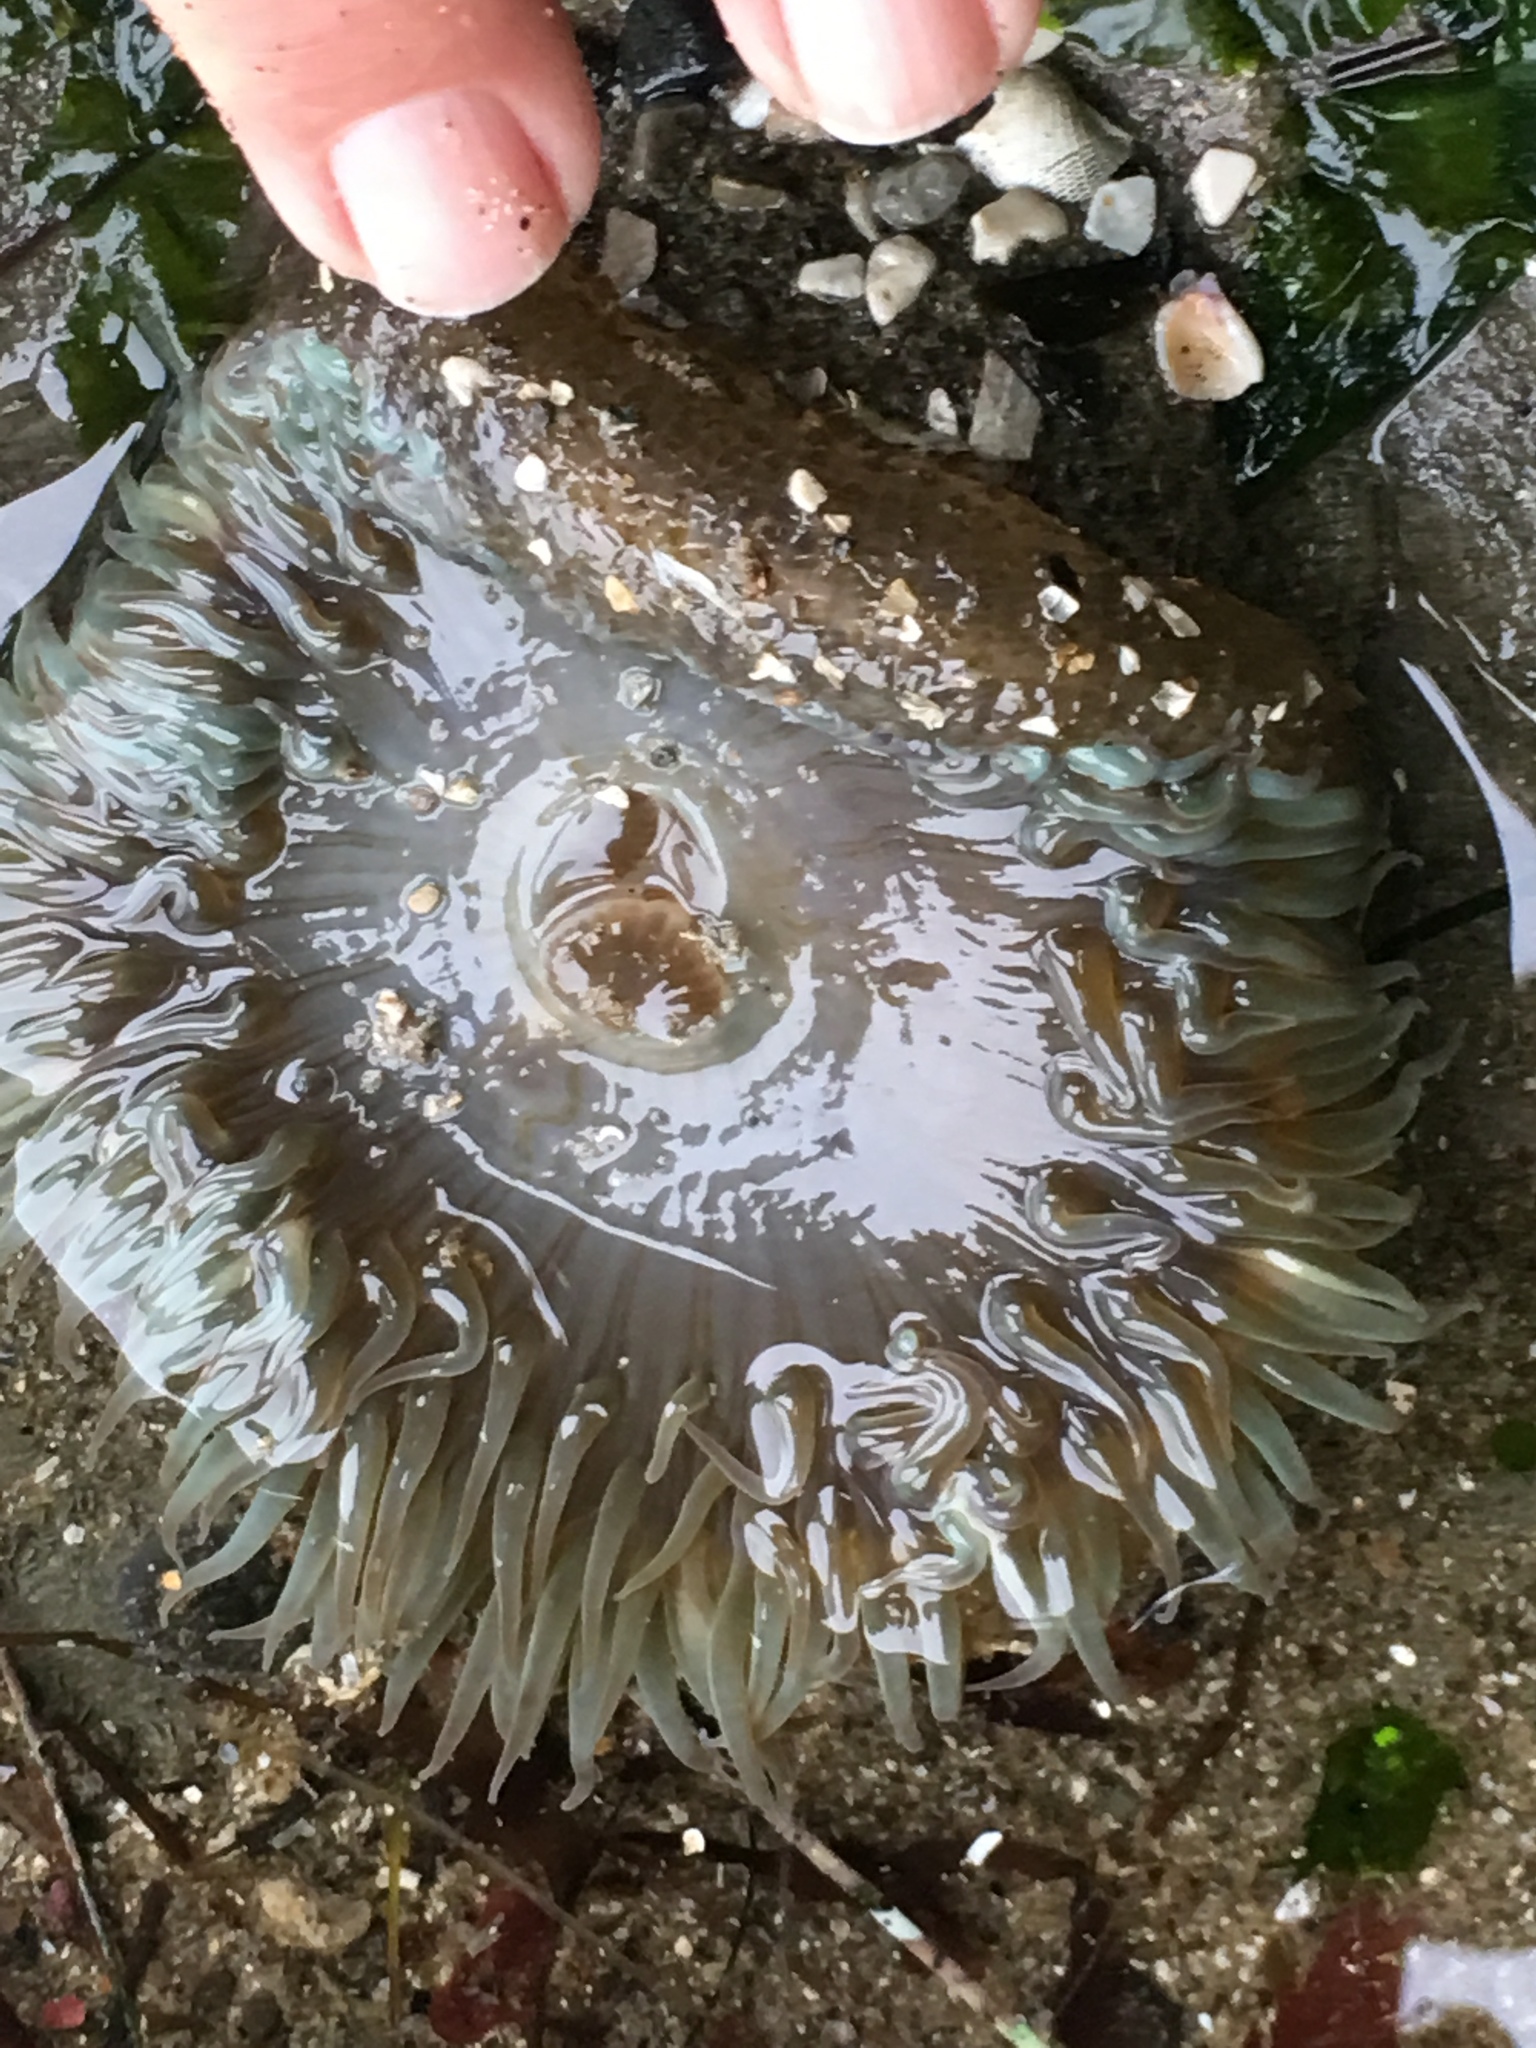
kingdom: Animalia
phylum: Cnidaria
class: Anthozoa
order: Actiniaria
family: Actiniidae
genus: Anthopleura
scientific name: Anthopleura sola
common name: Sun anemone
